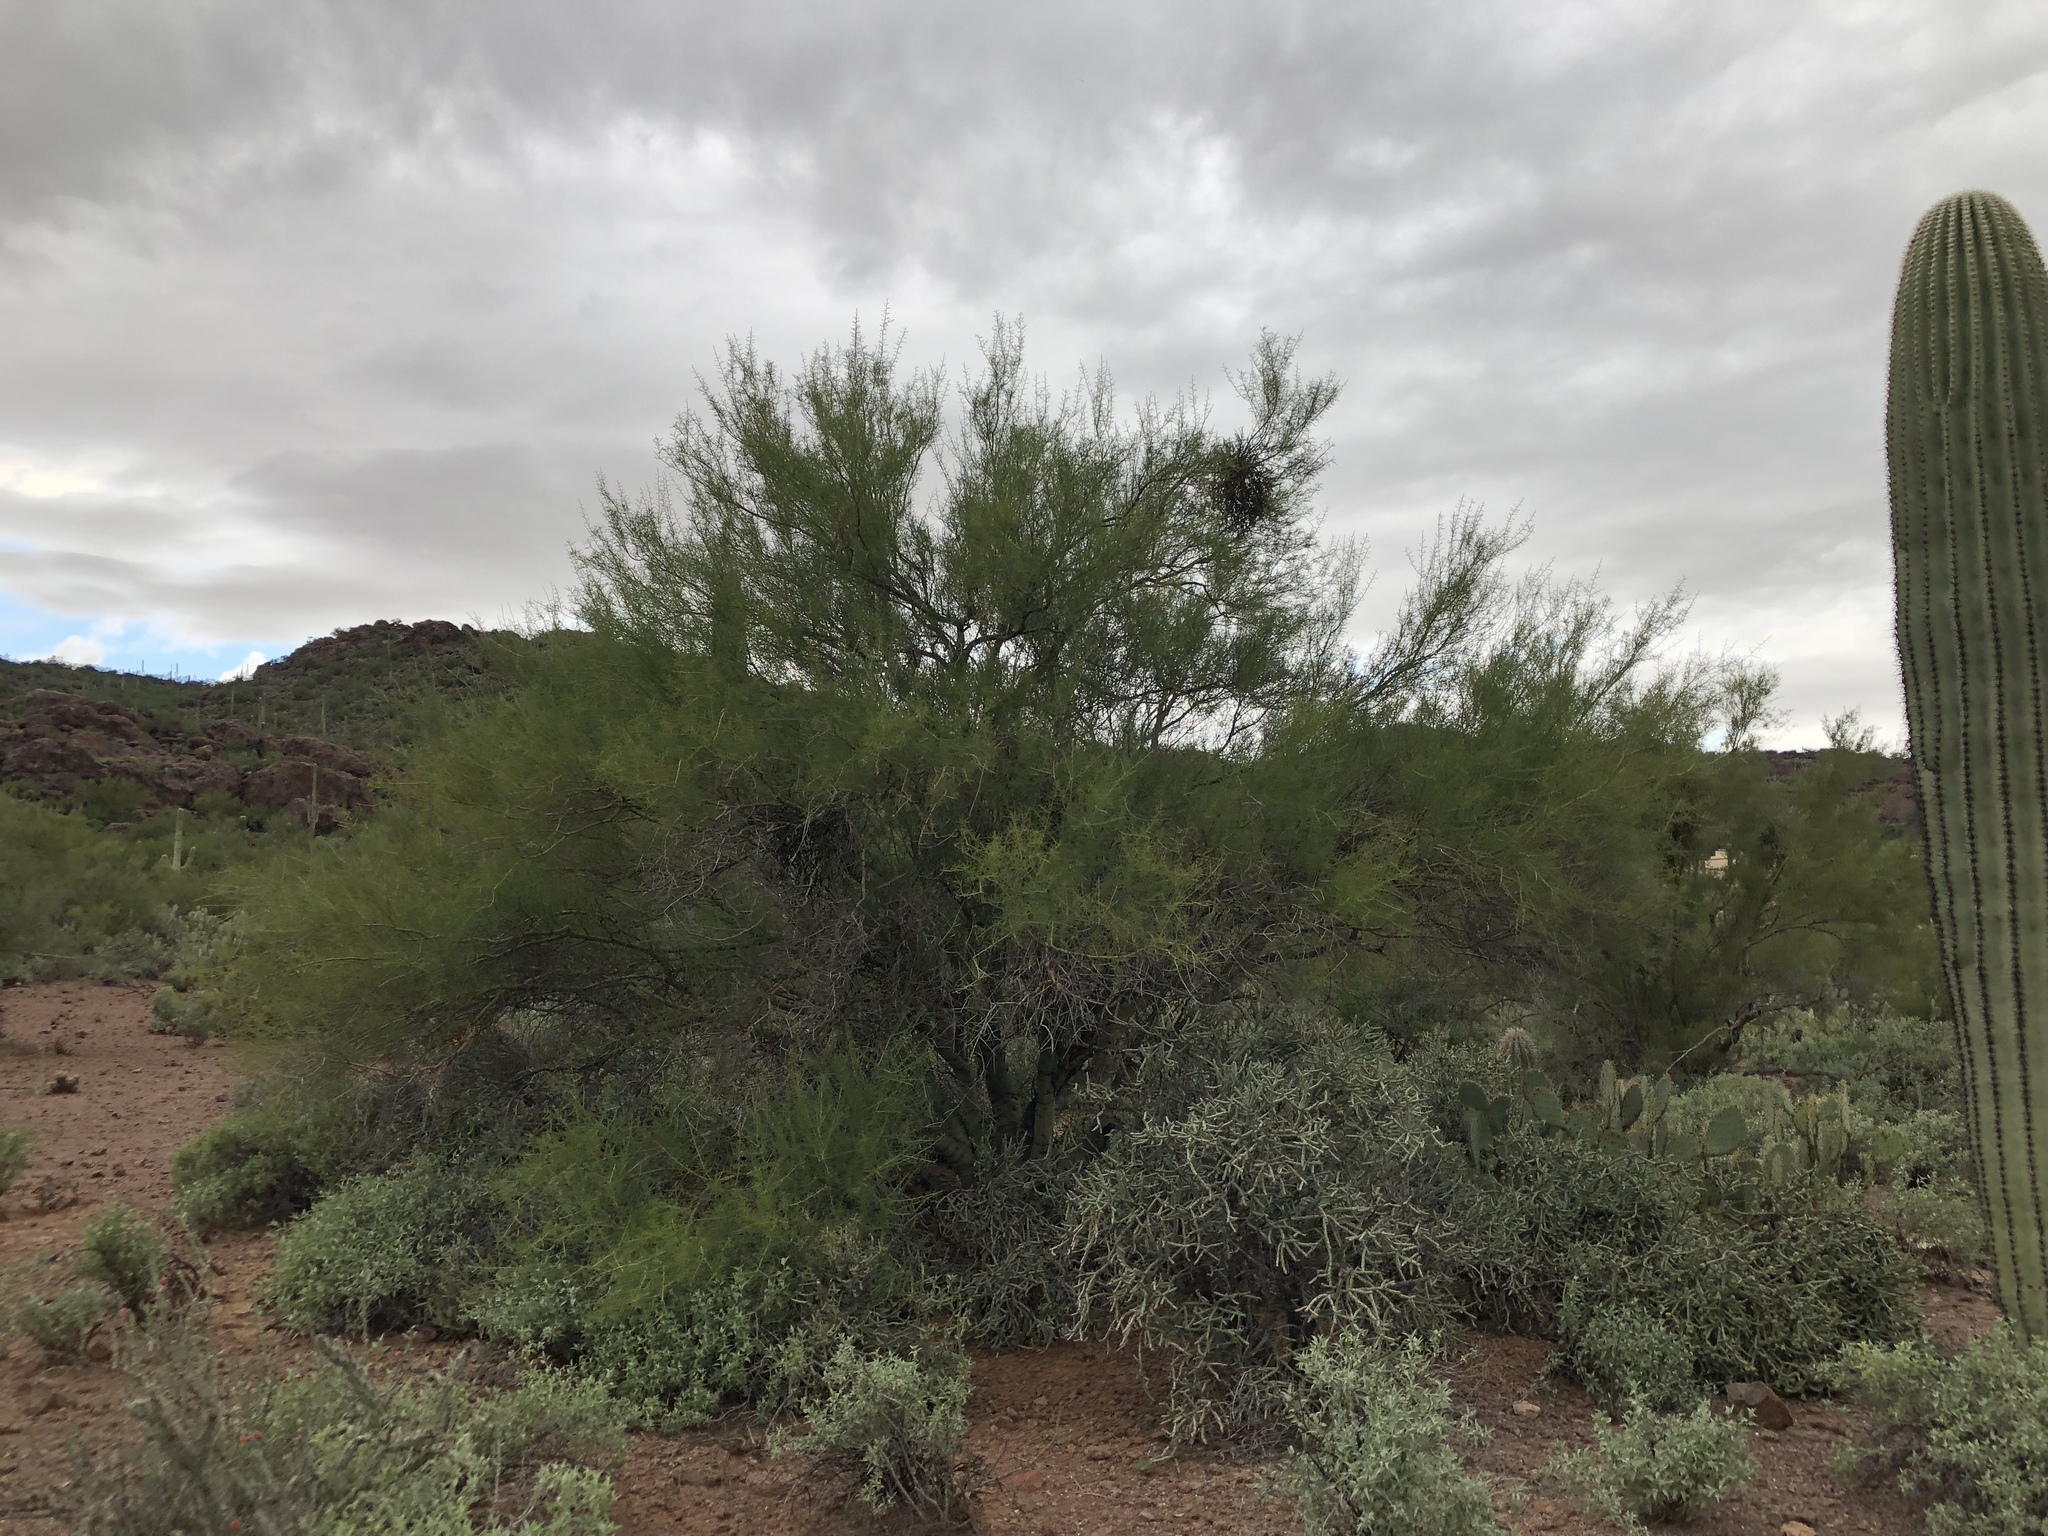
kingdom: Plantae
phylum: Tracheophyta
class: Magnoliopsida
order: Fabales
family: Fabaceae
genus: Parkinsonia
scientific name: Parkinsonia microphylla
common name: Yellow paloverde
